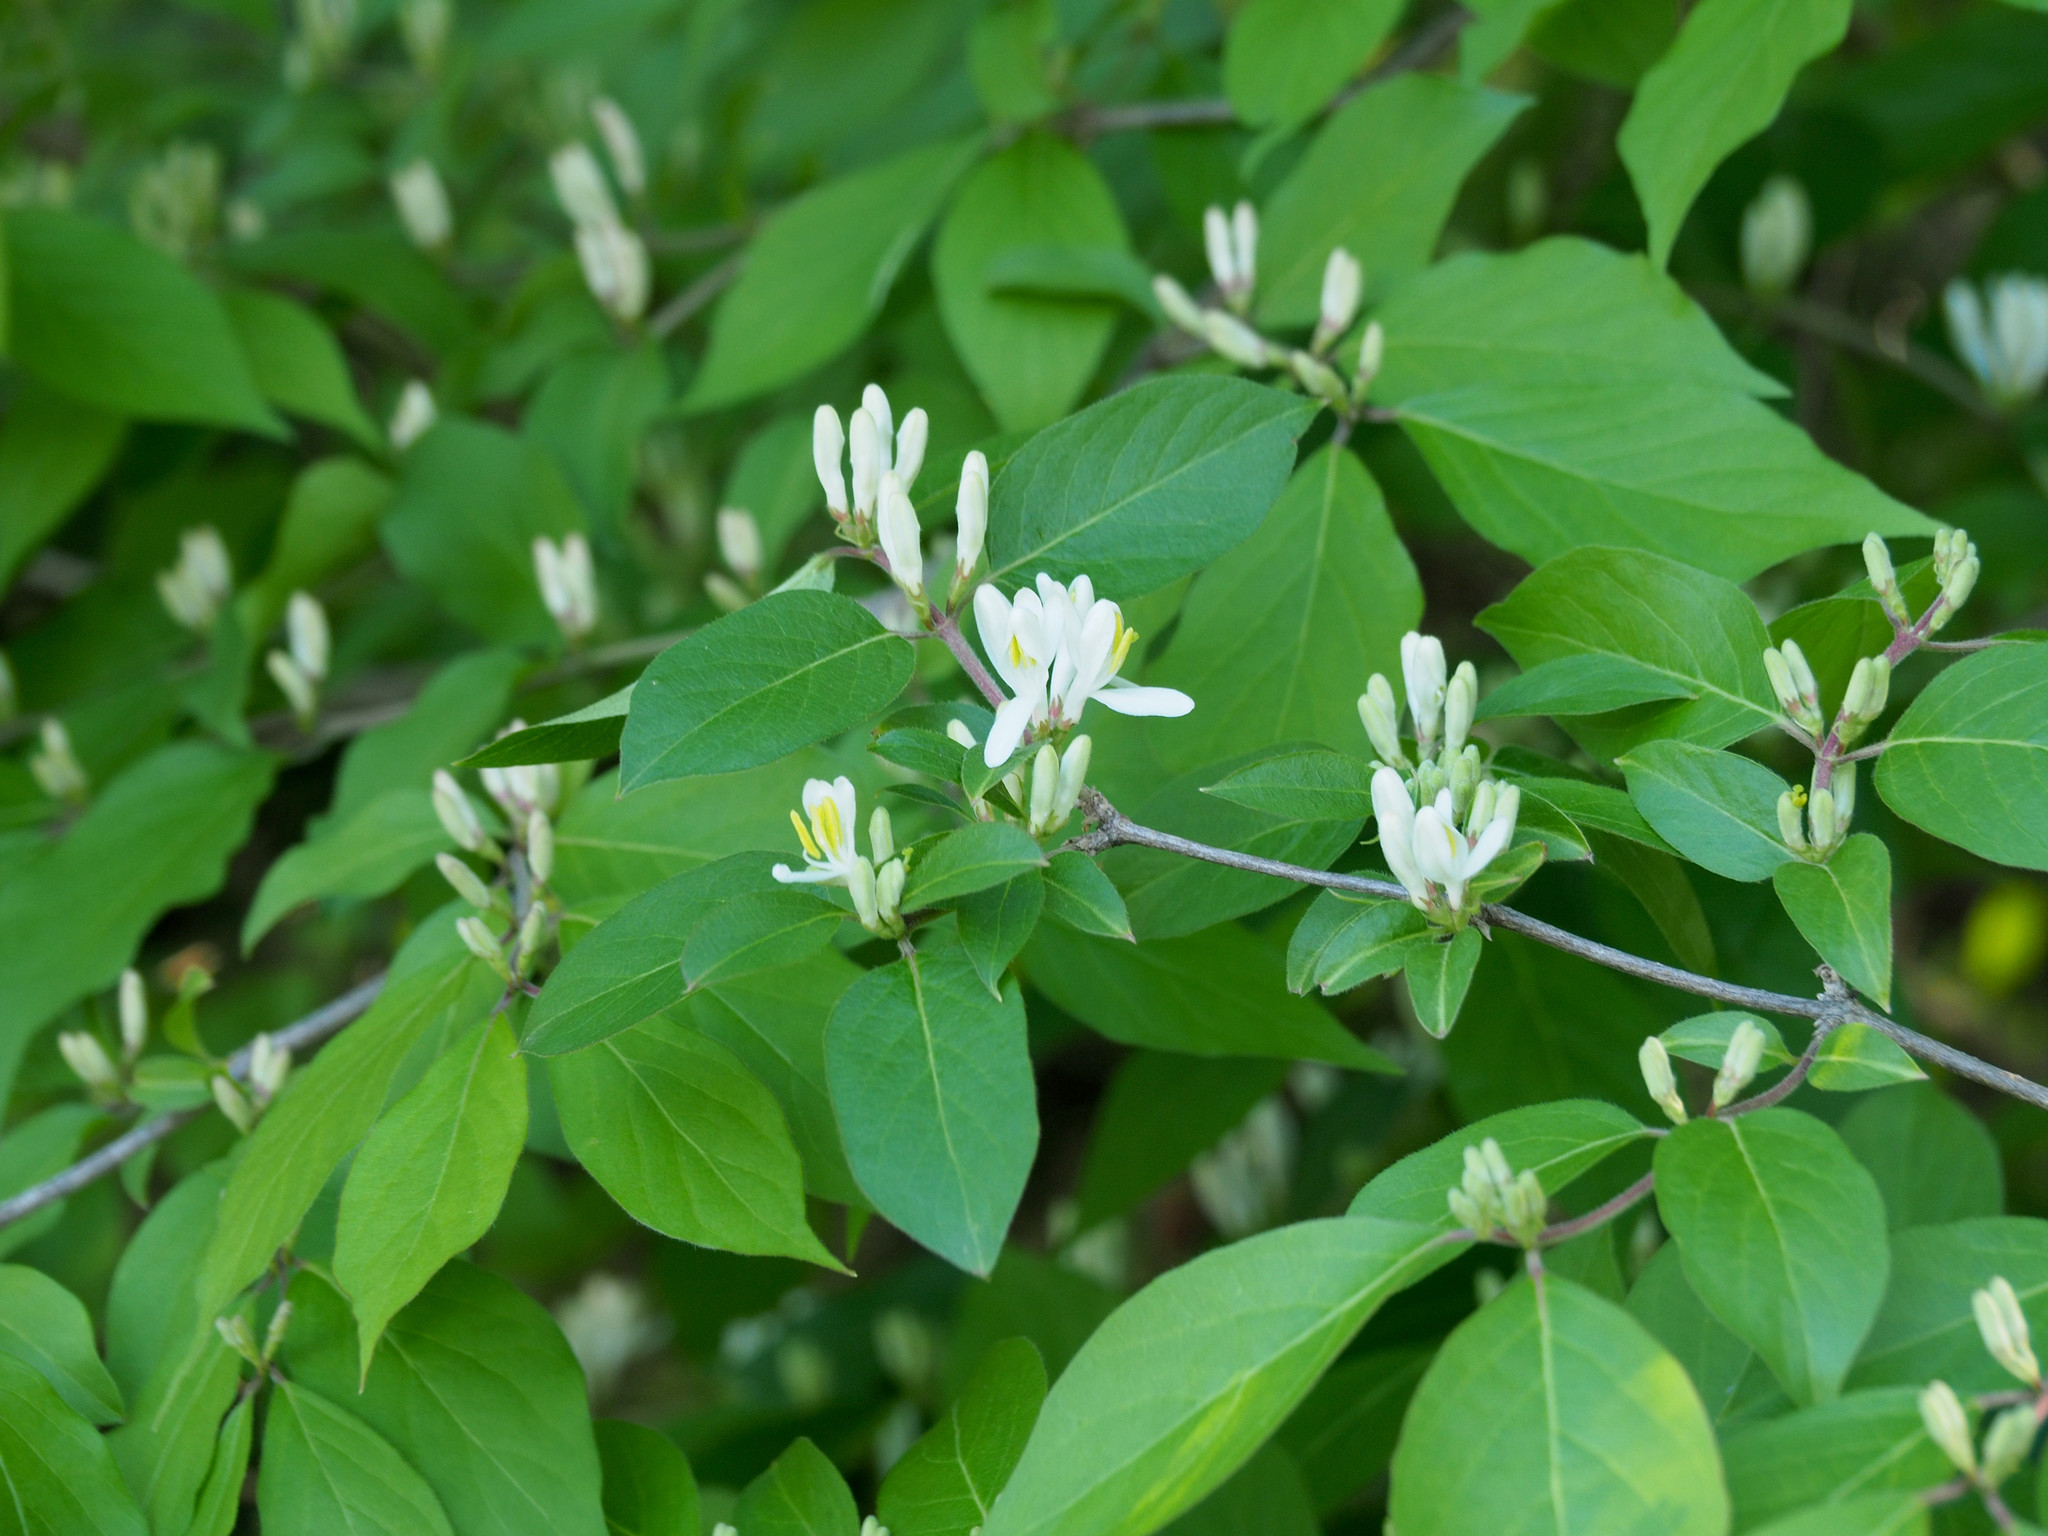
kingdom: Plantae
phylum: Tracheophyta
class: Magnoliopsida
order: Dipsacales
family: Caprifoliaceae
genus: Lonicera
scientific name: Lonicera maackii
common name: Amur honeysuckle
